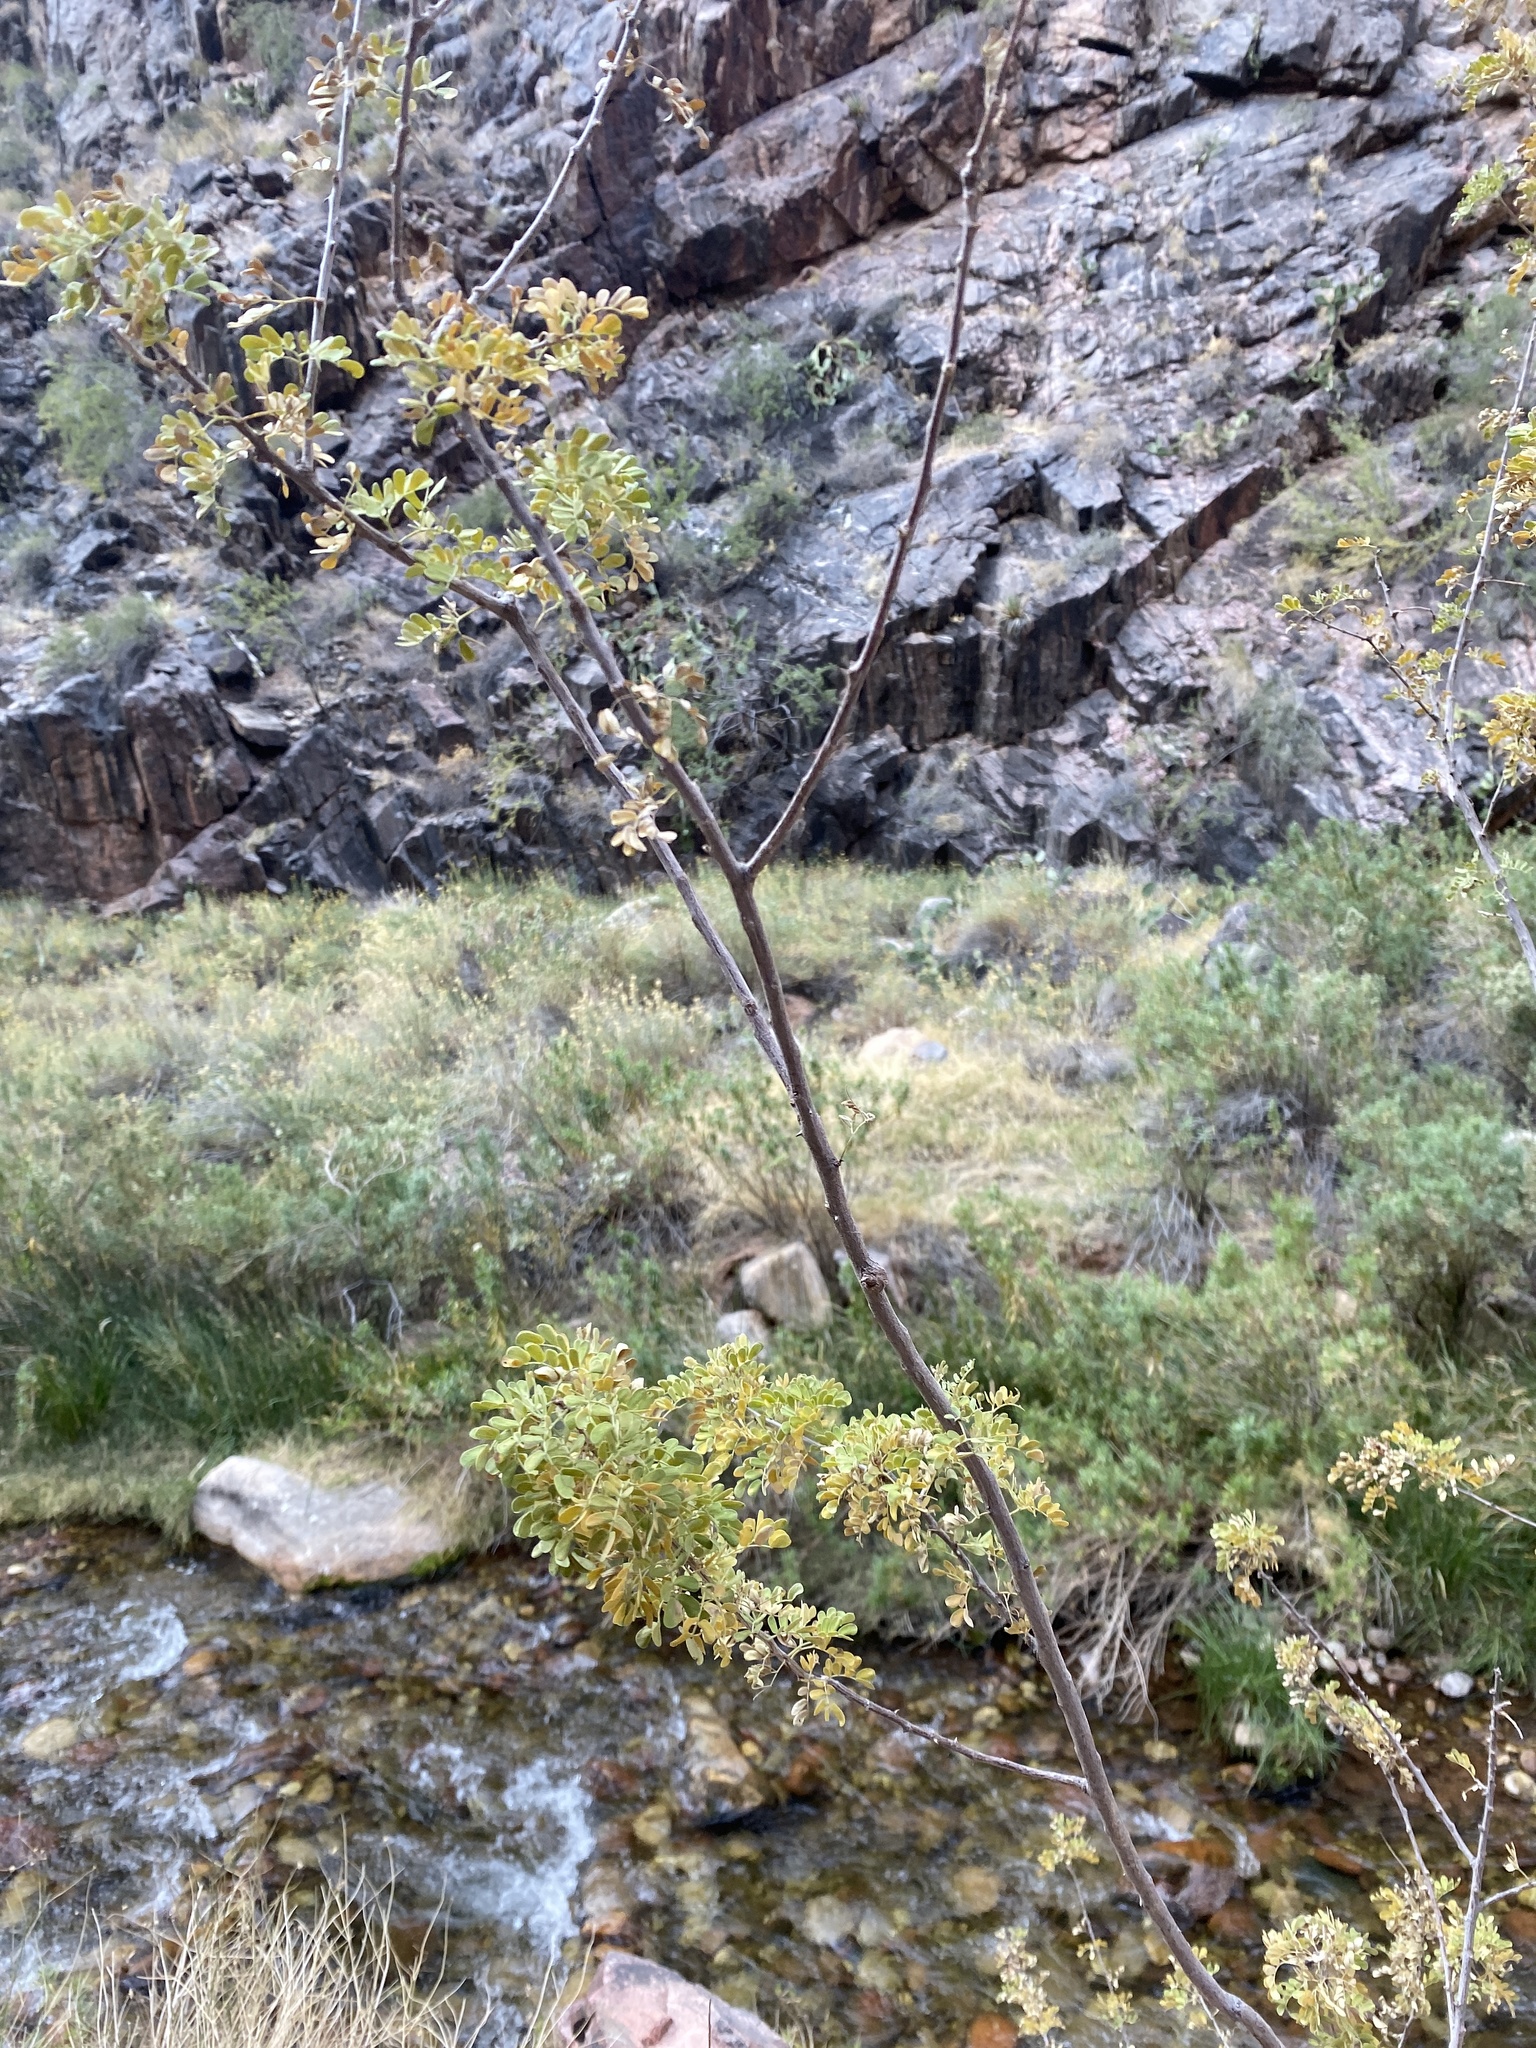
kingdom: Plantae
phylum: Tracheophyta
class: Magnoliopsida
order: Fabales
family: Fabaceae
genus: Senegalia
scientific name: Senegalia greggii
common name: Texas-mimosa
